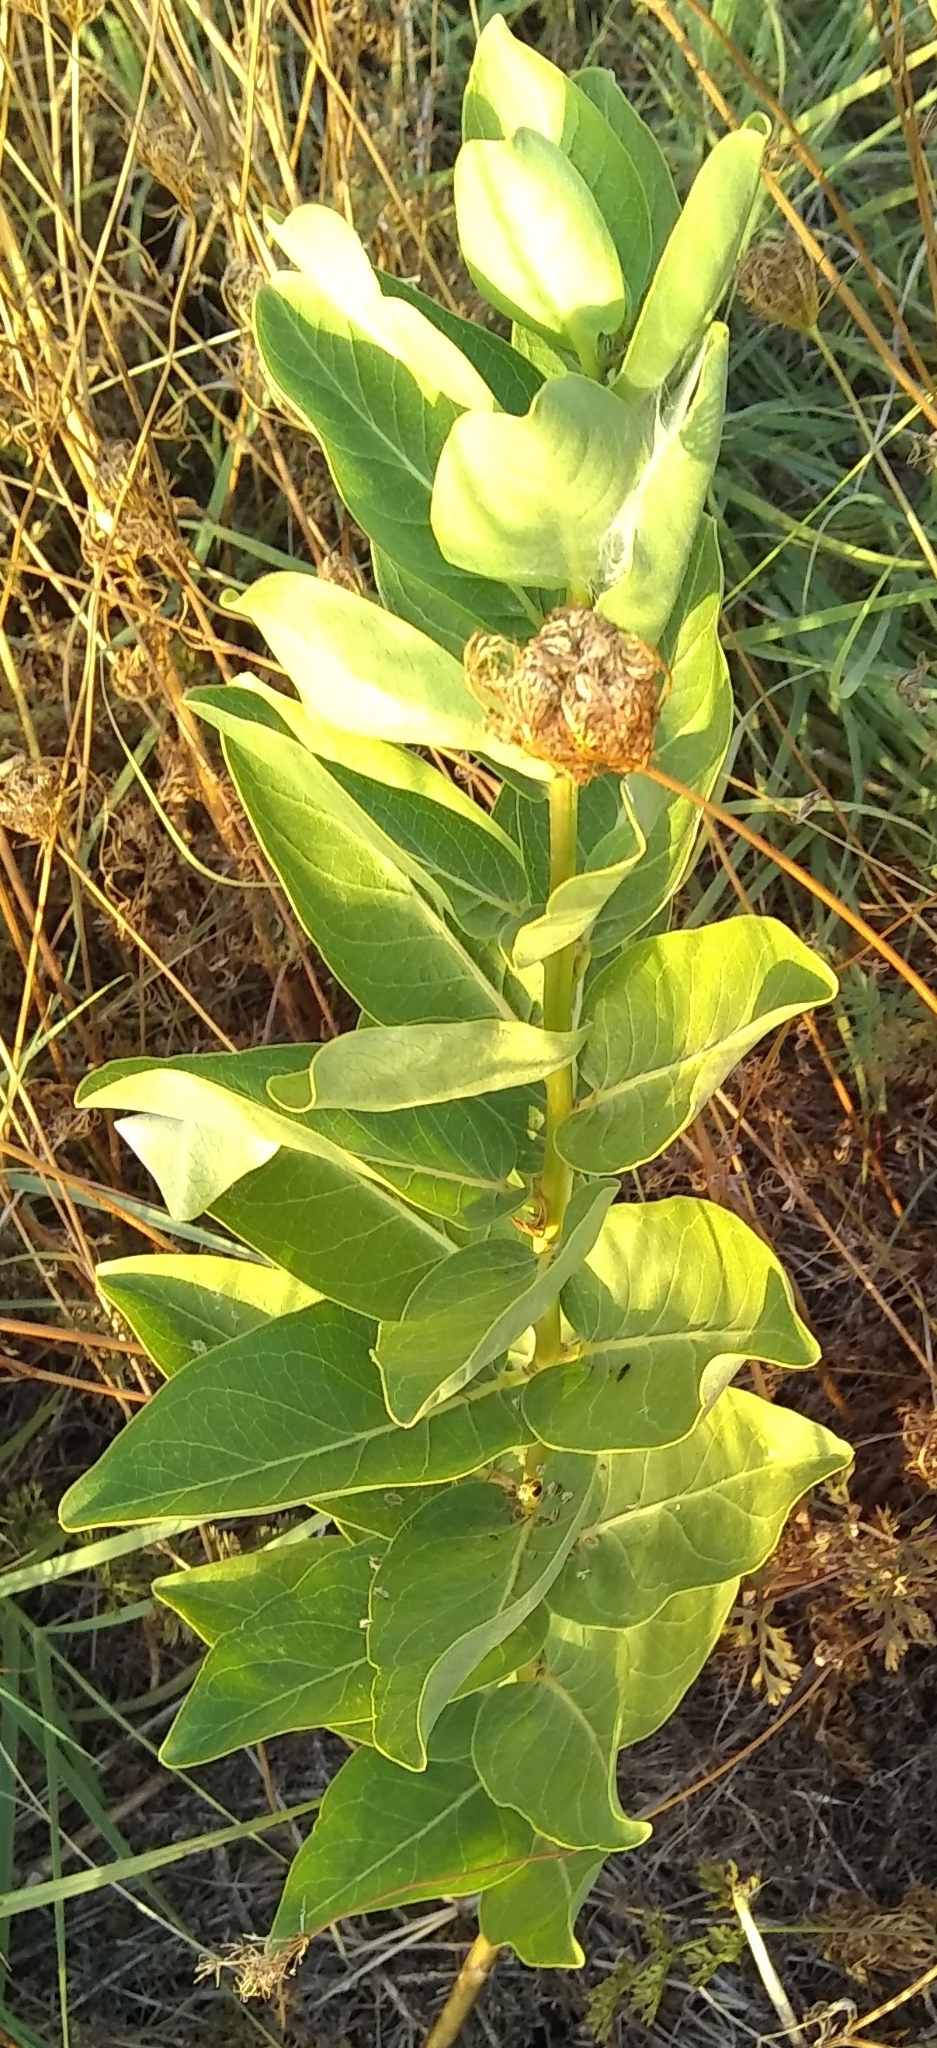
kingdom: Plantae
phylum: Tracheophyta
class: Magnoliopsida
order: Gentianales
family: Apocynaceae
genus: Asclepias
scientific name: Asclepias viridis
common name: Antelope-horns
